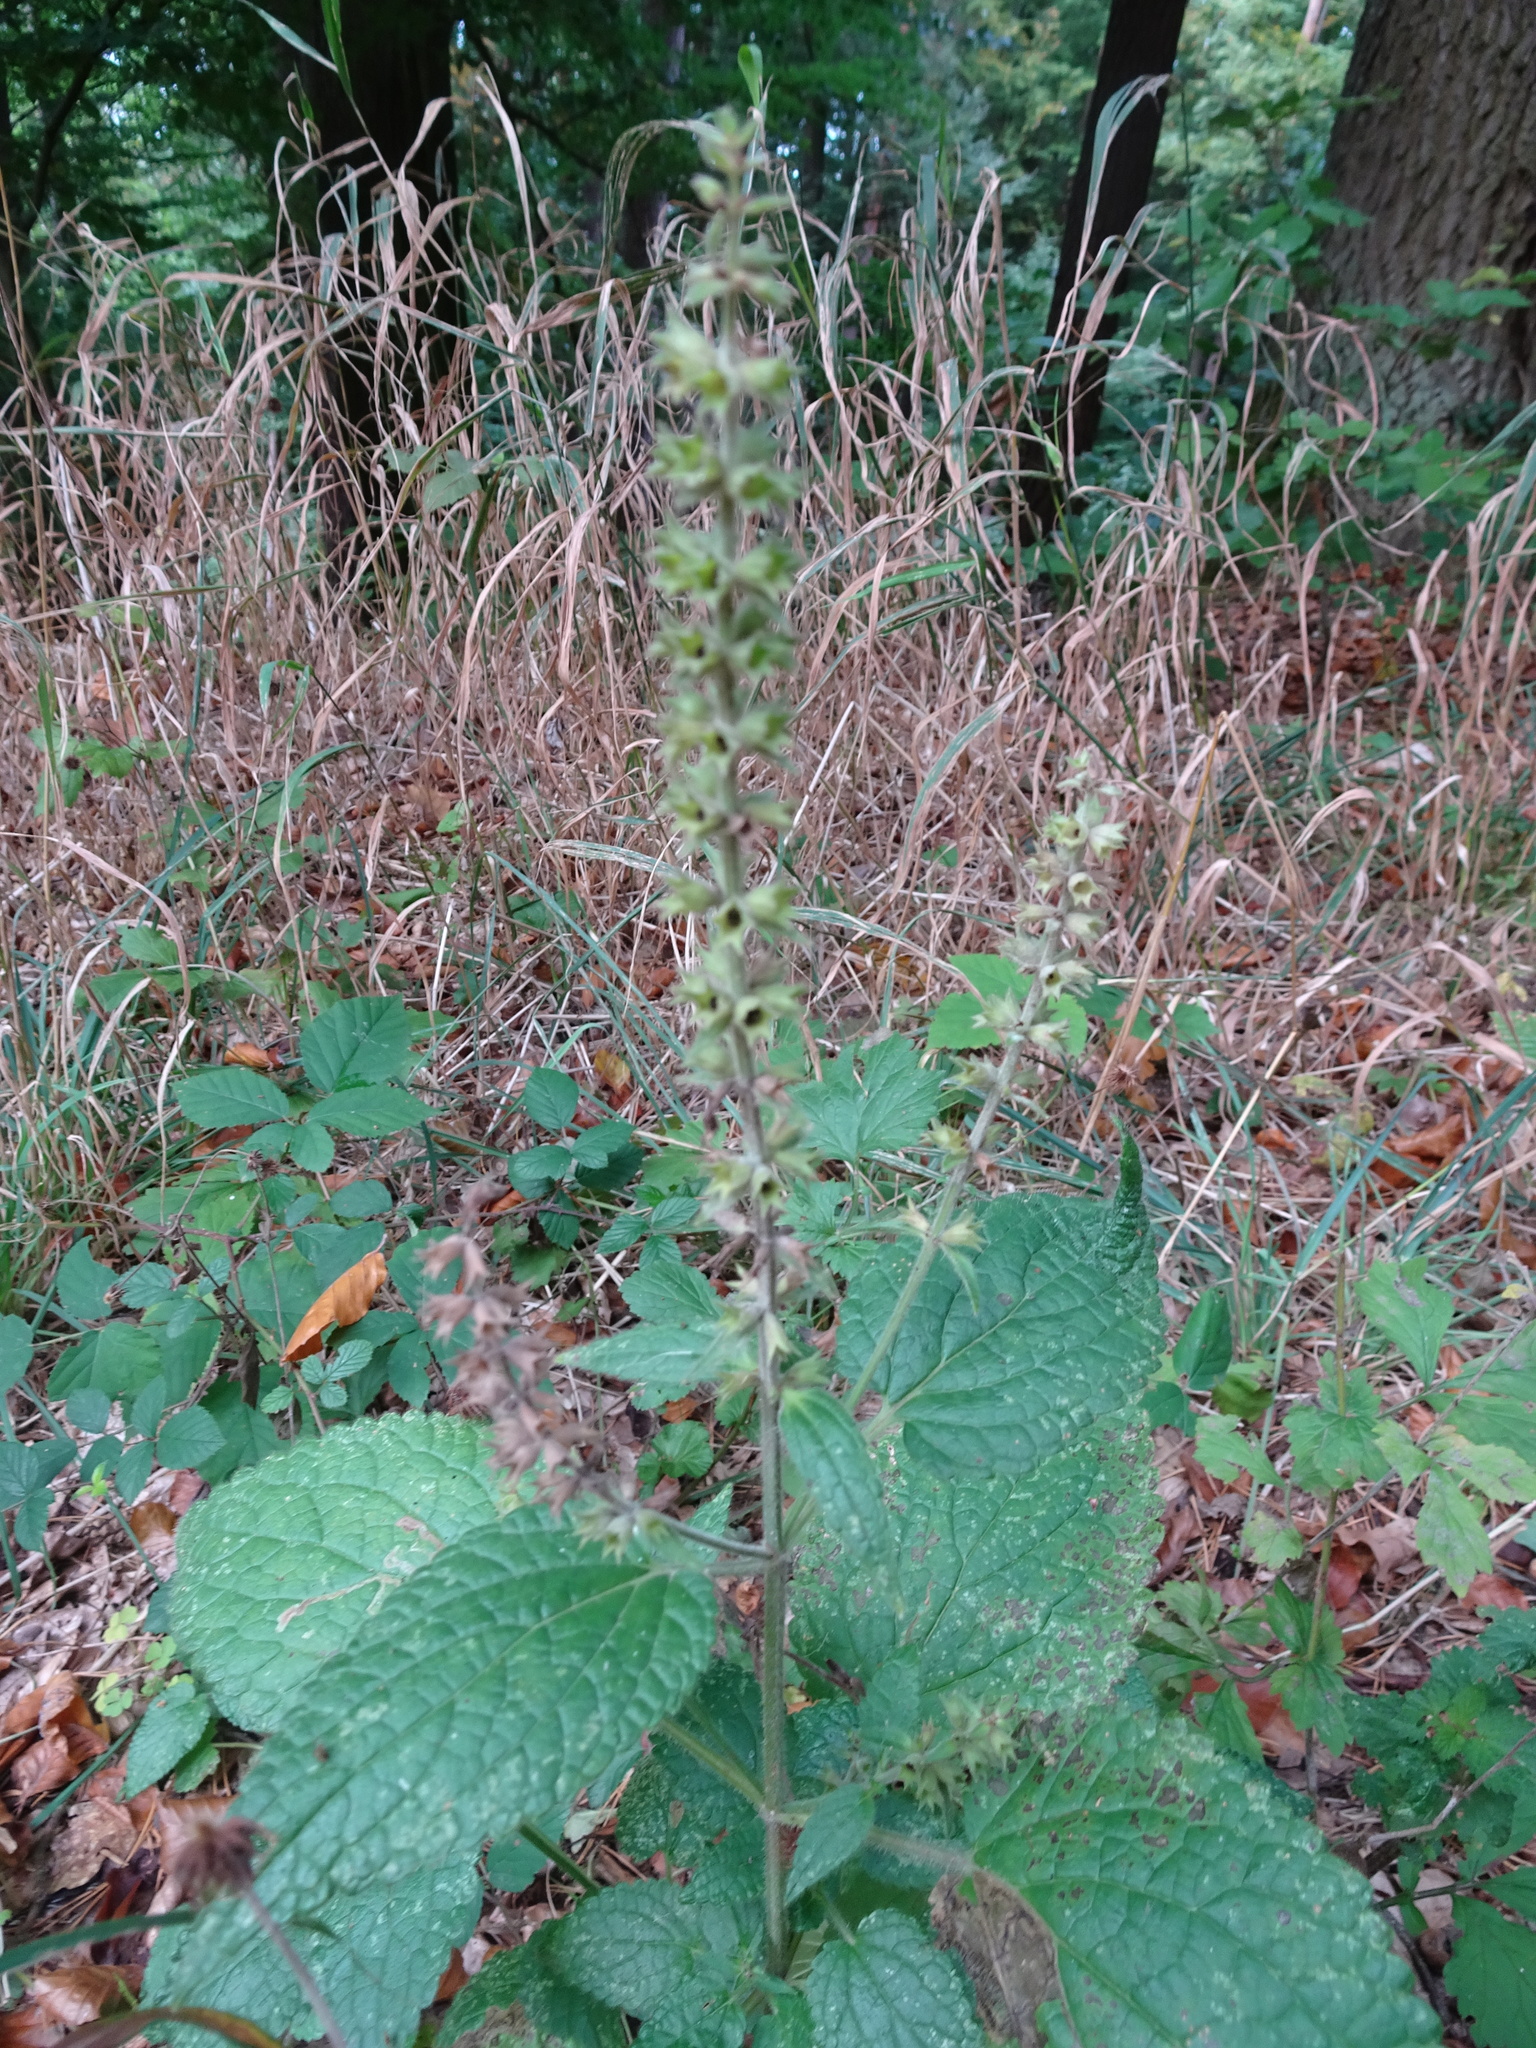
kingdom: Plantae
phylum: Tracheophyta
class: Magnoliopsida
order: Lamiales
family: Lamiaceae
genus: Stachys
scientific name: Stachys sylvatica
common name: Hedge woundwort
